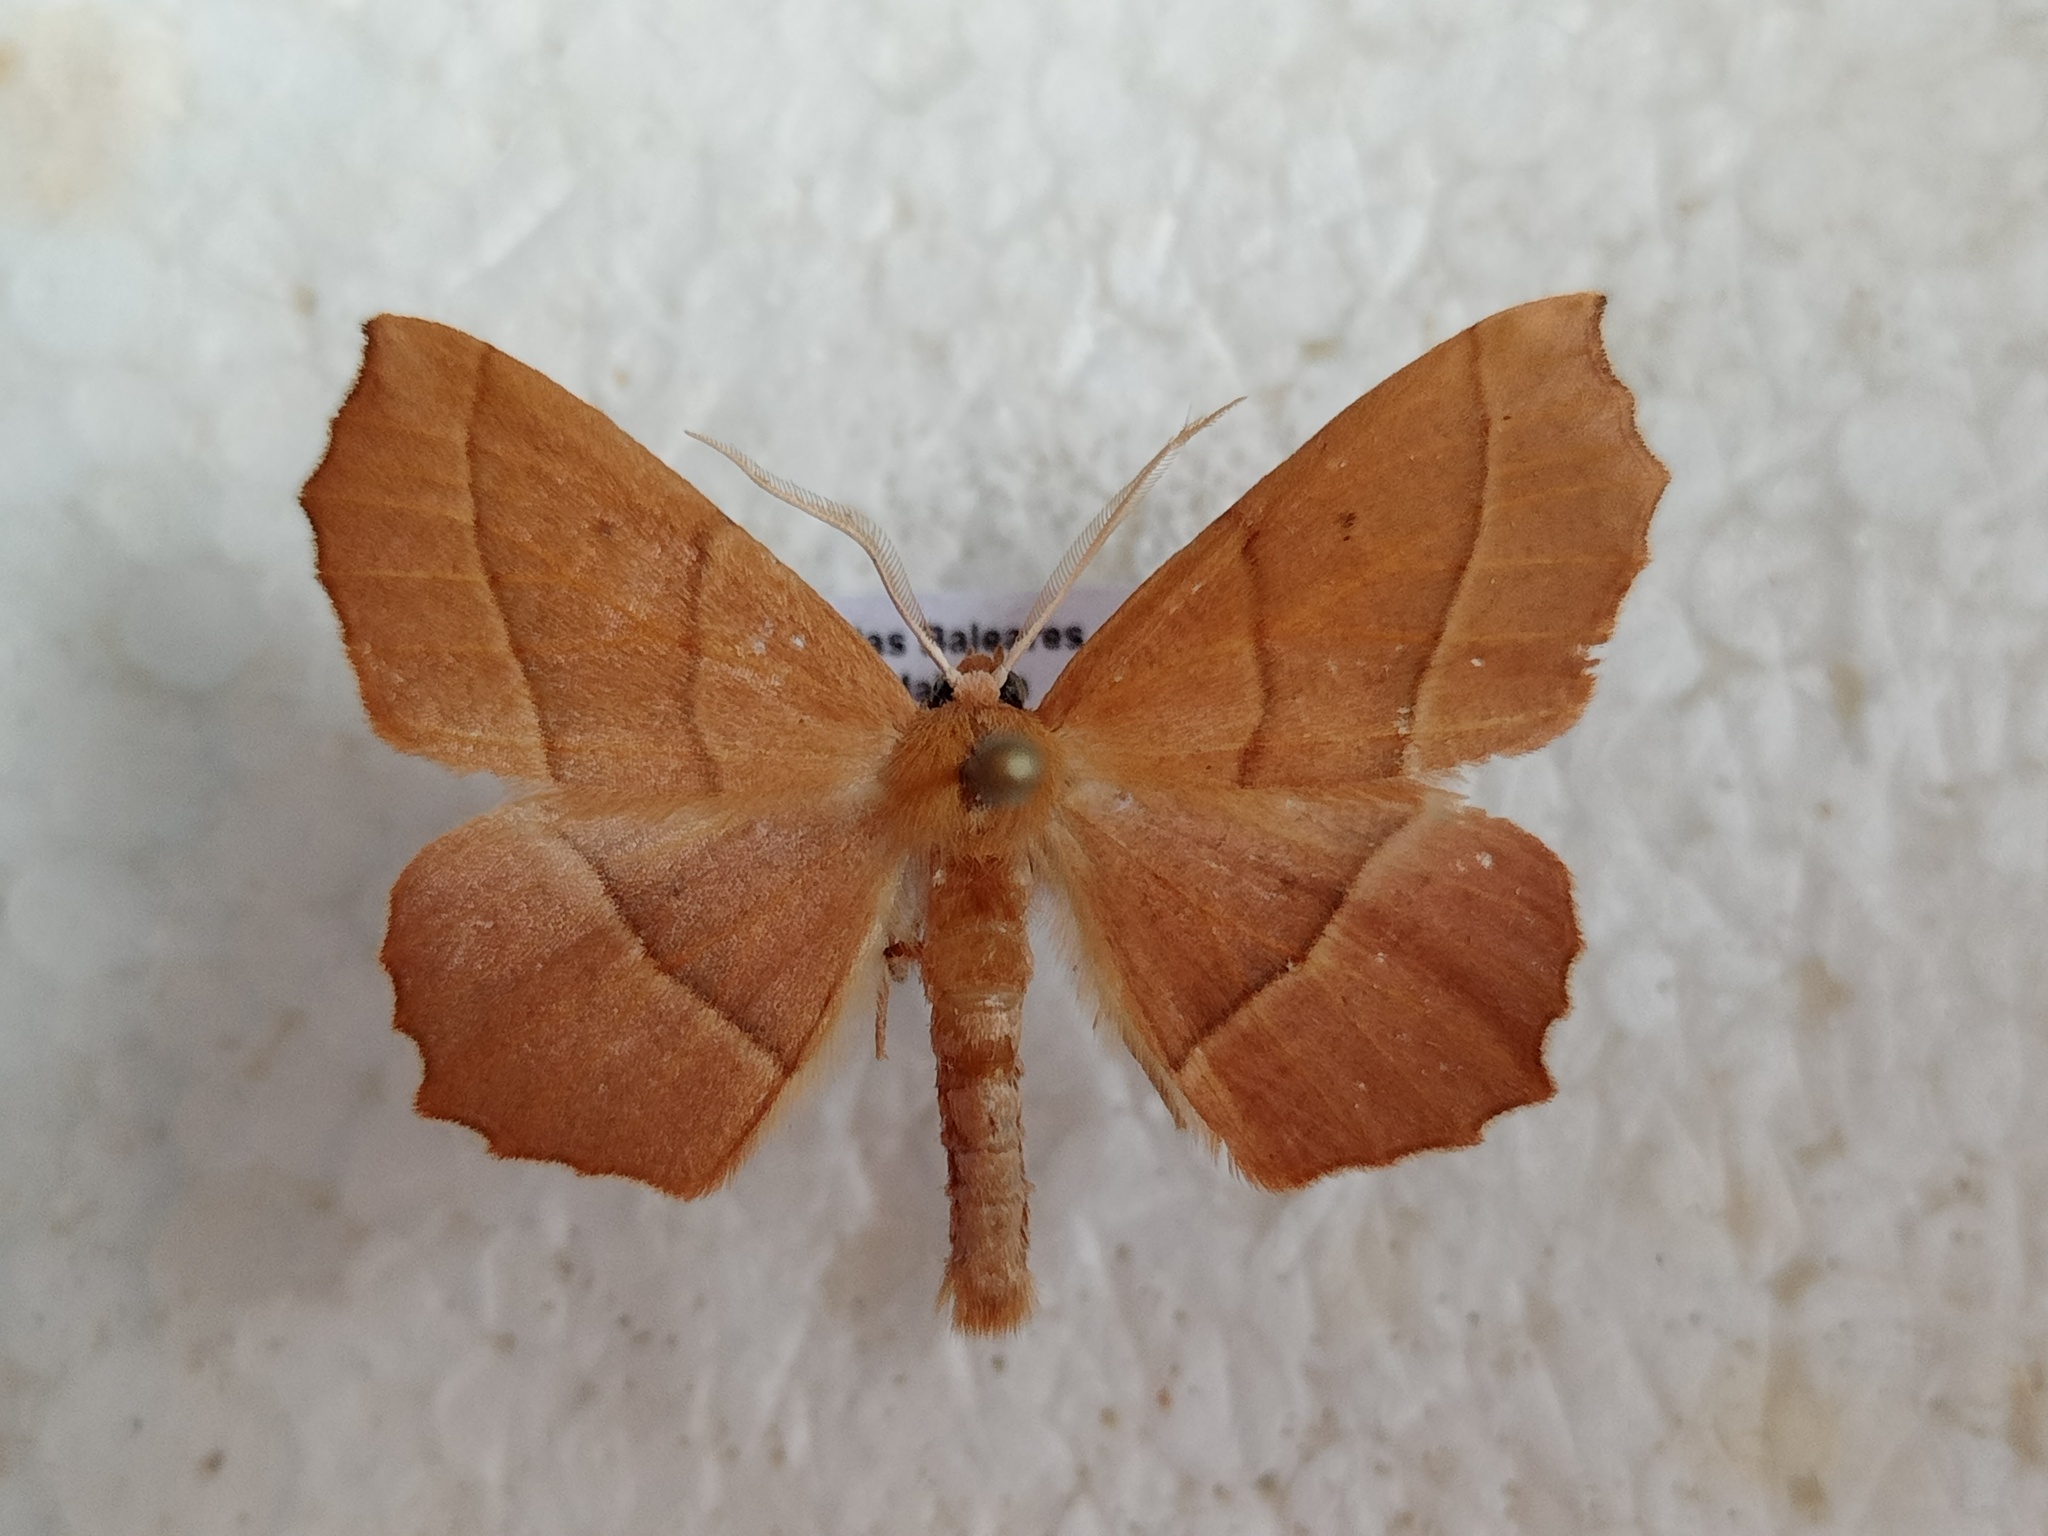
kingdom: Animalia
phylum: Arthropoda
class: Insecta
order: Lepidoptera
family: Geometridae
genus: Gerinia
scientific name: Gerinia honoraria
